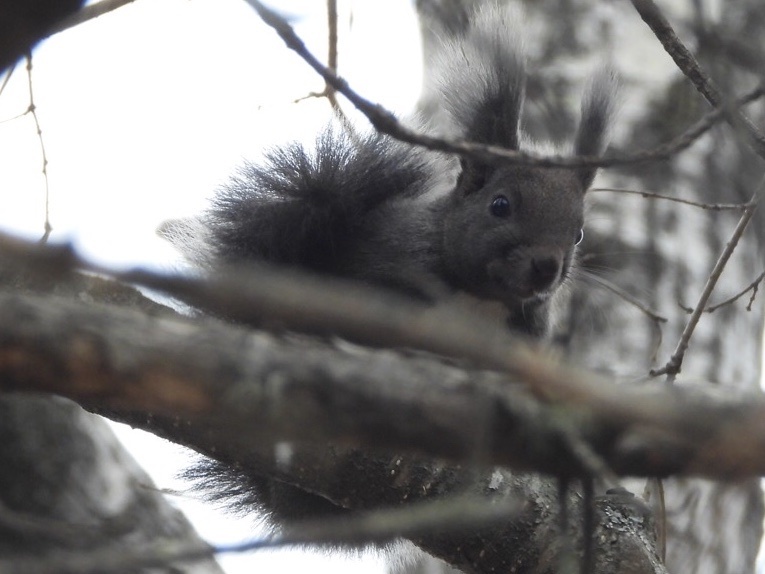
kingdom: Animalia
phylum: Chordata
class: Mammalia
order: Rodentia
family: Sciuridae
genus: Sciurus
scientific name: Sciurus vulgaris
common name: Eurasian red squirrel
